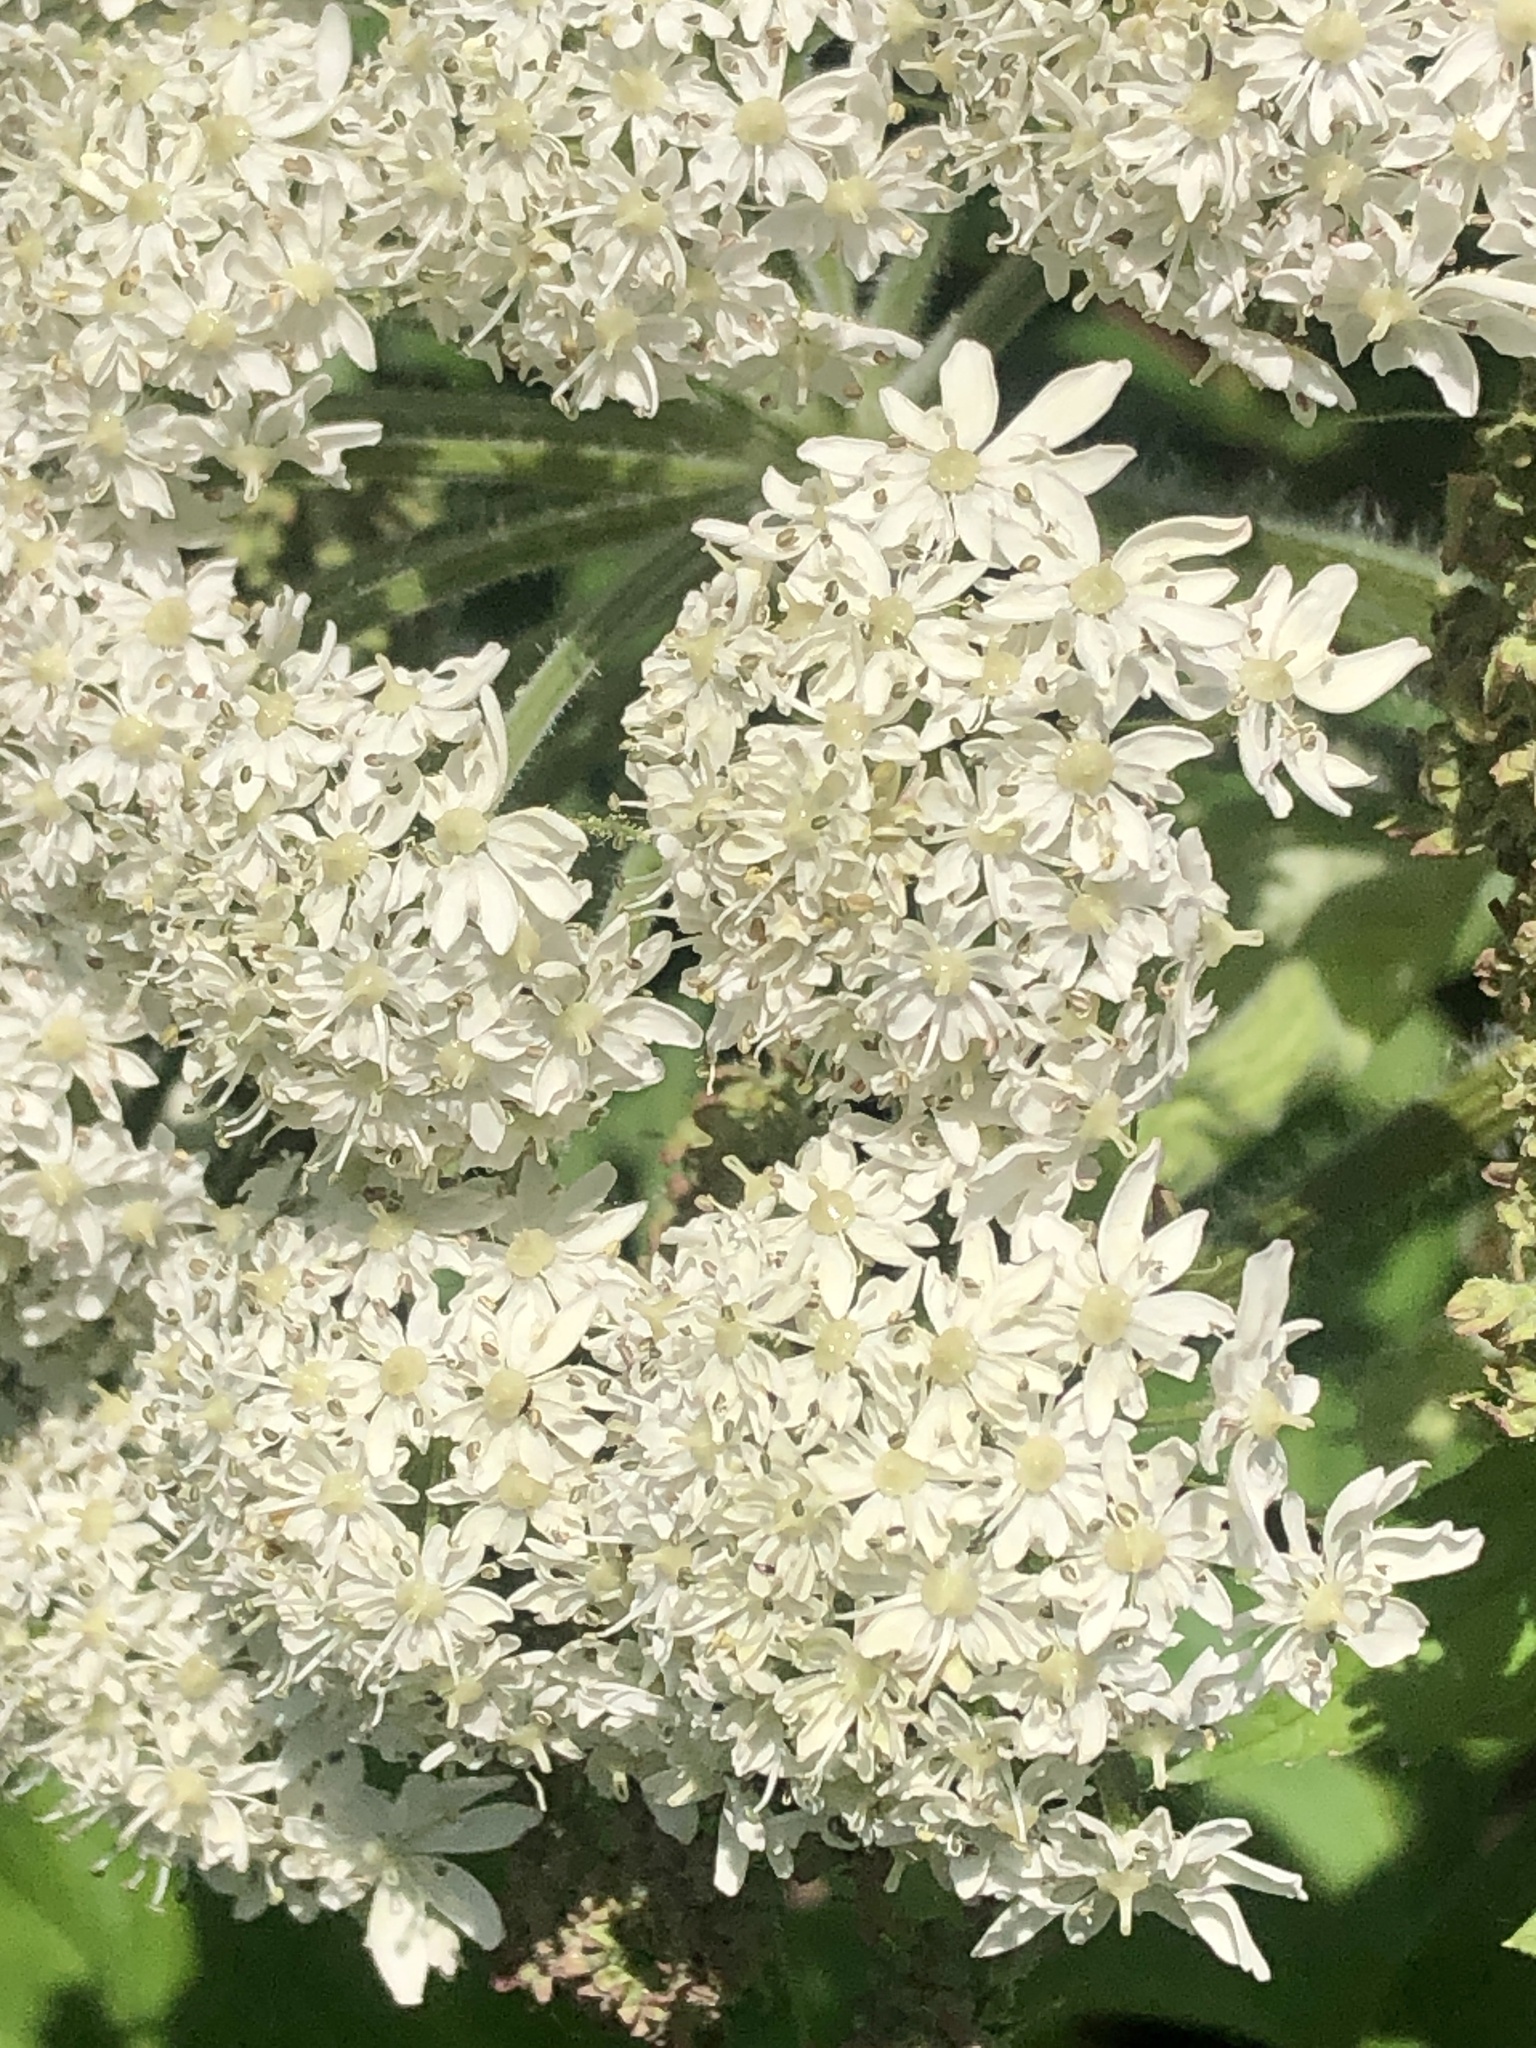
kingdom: Plantae
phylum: Tracheophyta
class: Magnoliopsida
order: Apiales
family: Apiaceae
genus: Heracleum
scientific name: Heracleum maximum
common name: American cow parsnip
